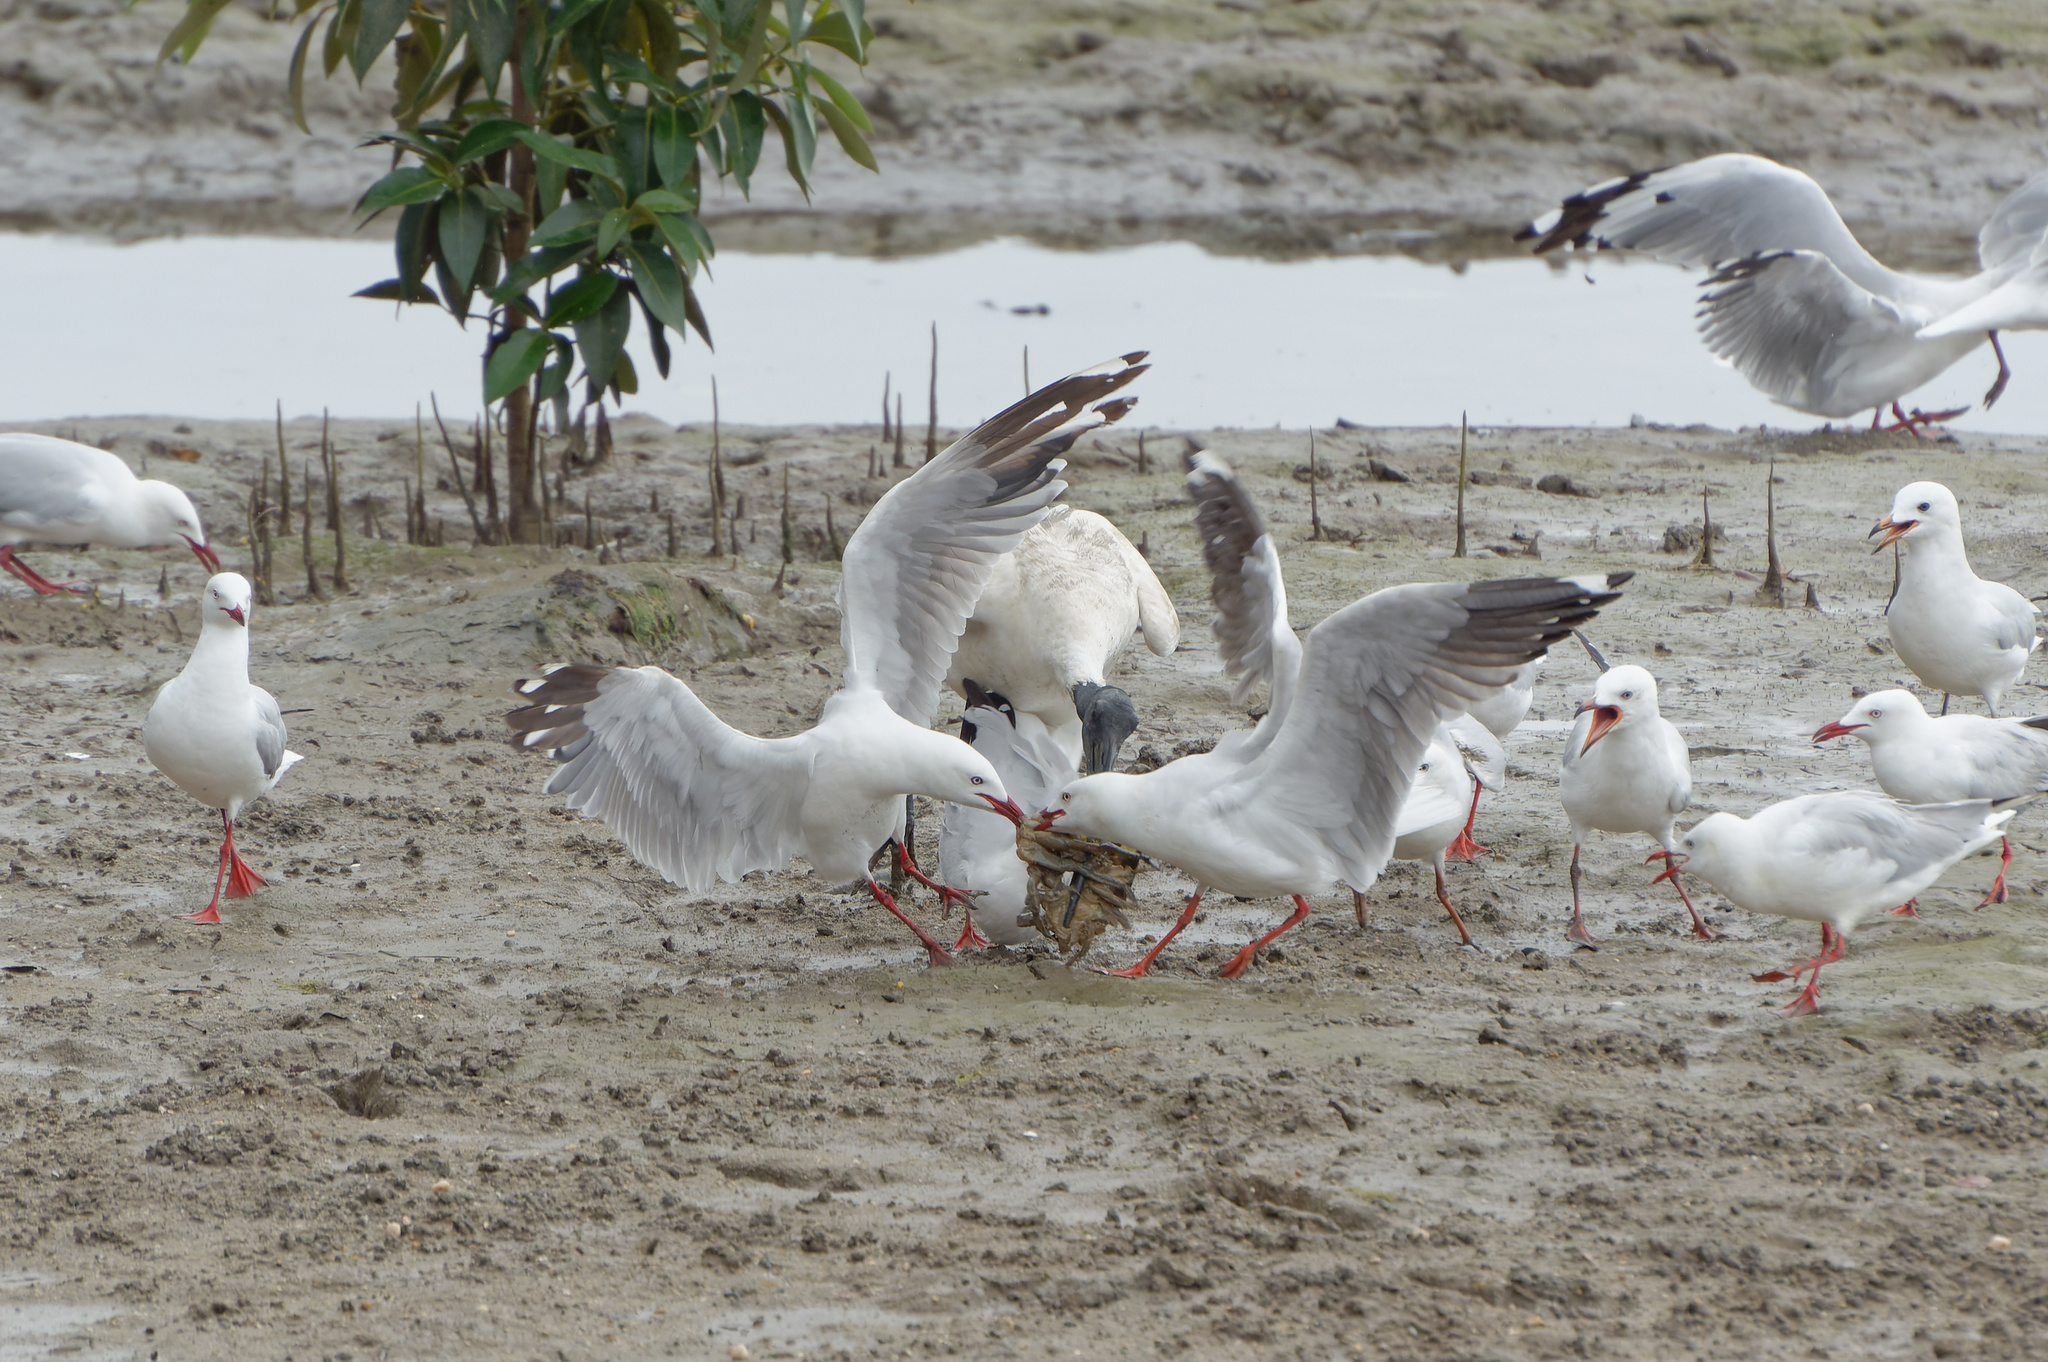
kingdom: Animalia
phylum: Chordata
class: Aves
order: Charadriiformes
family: Laridae
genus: Chroicocephalus
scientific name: Chroicocephalus novaehollandiae
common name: Silver gull
